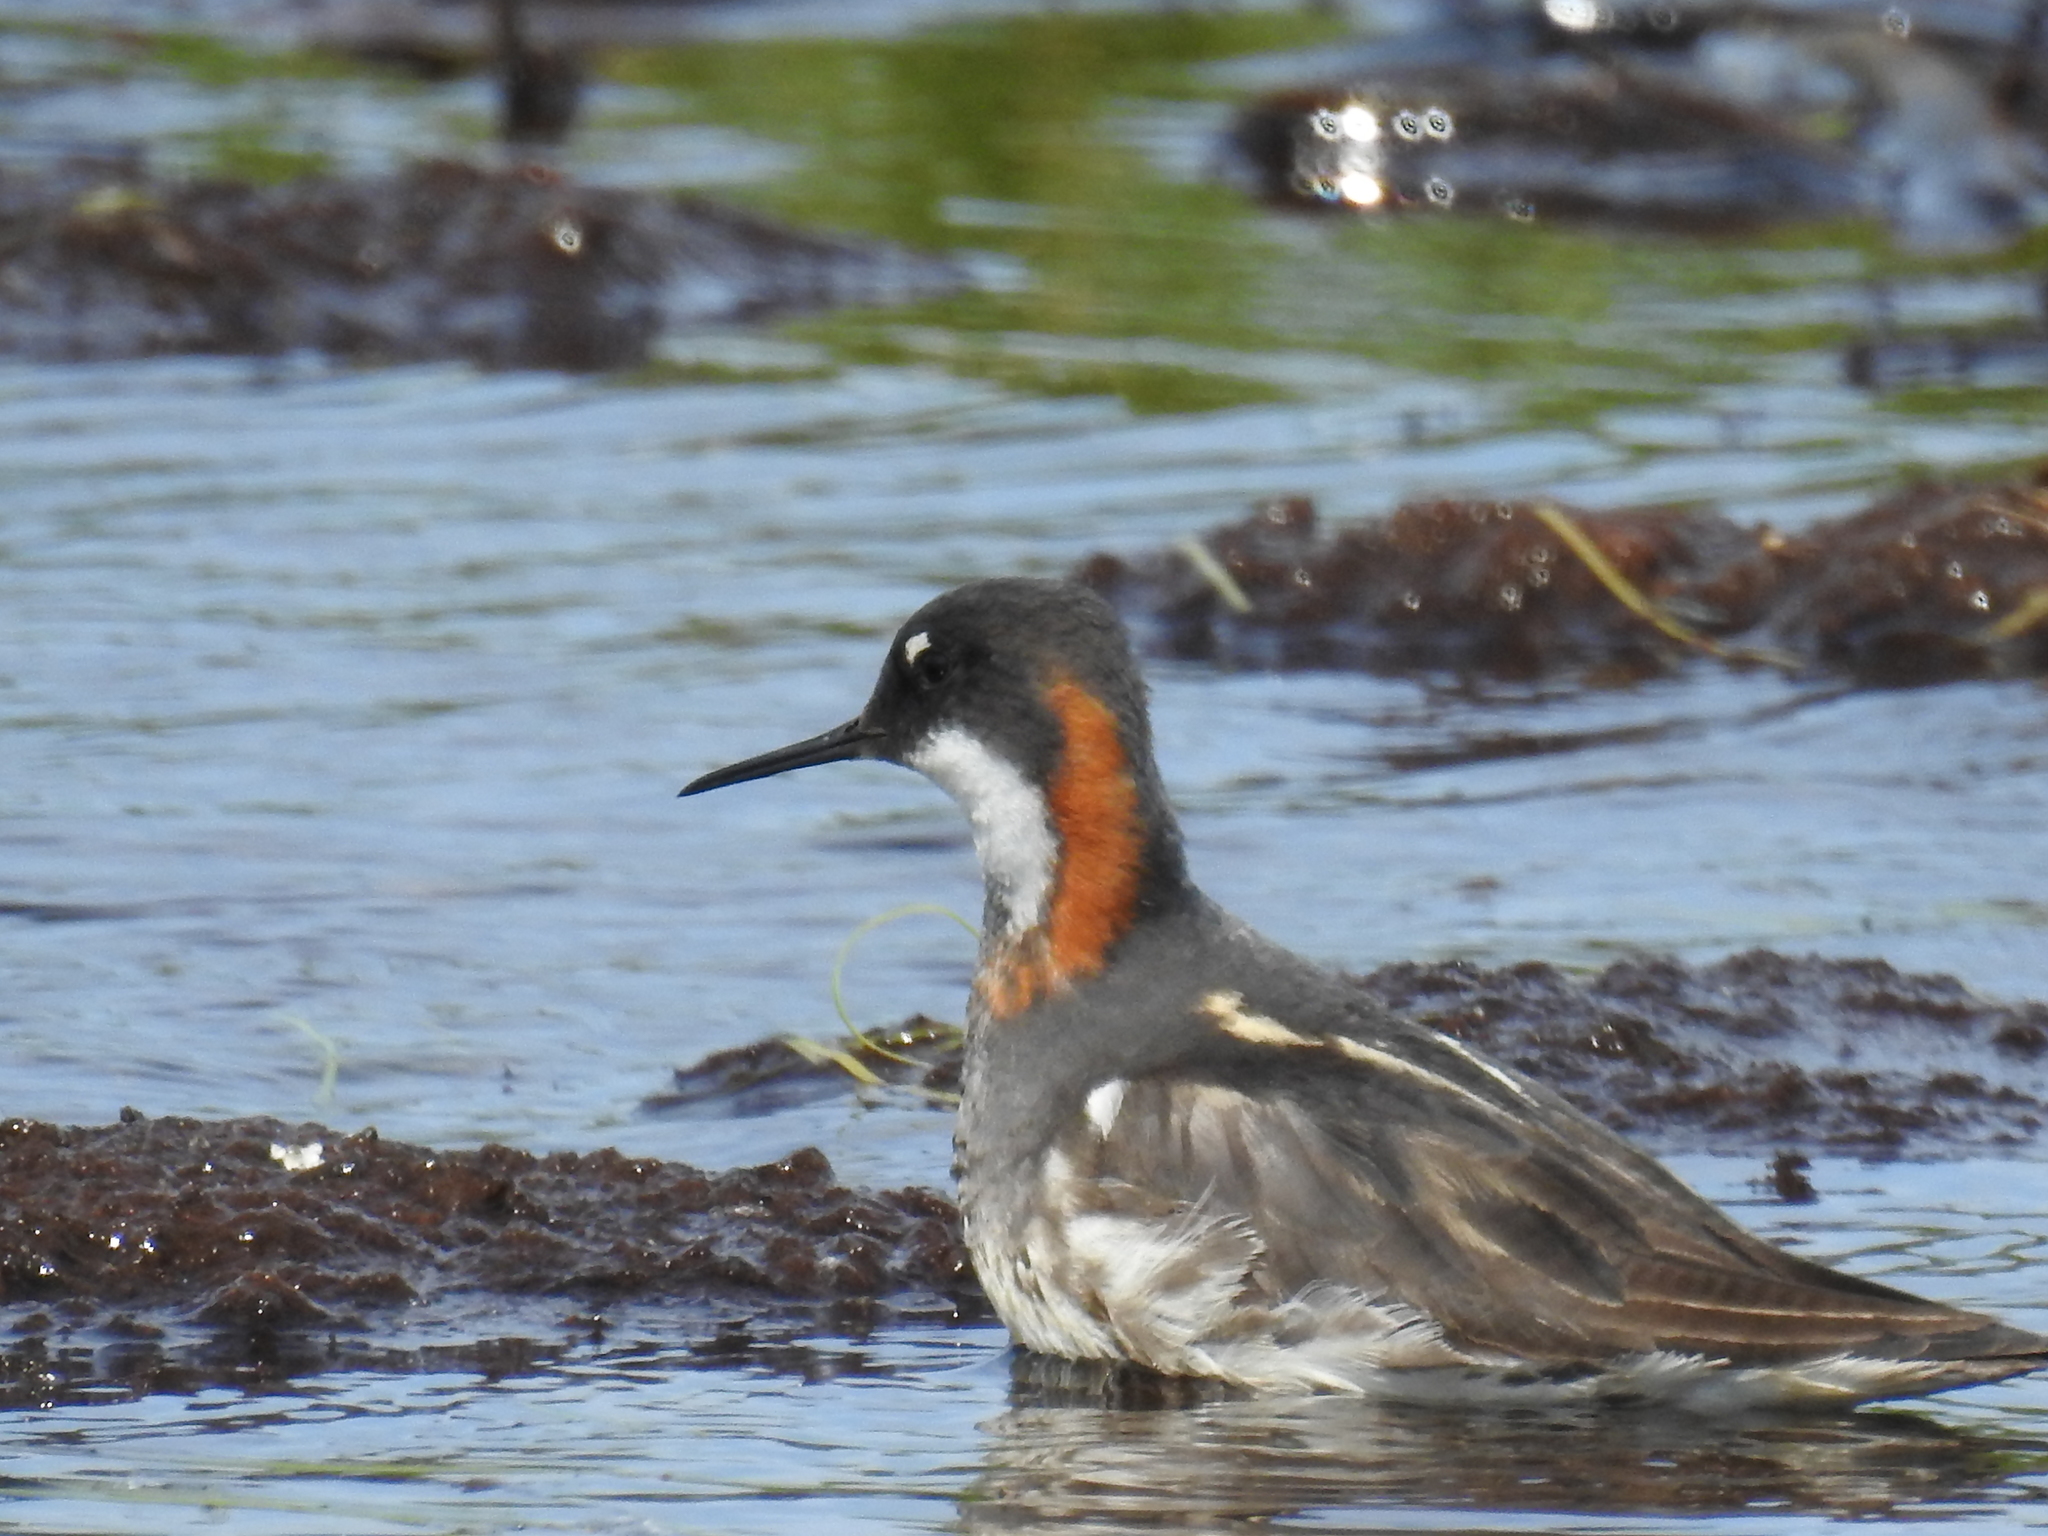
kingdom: Animalia
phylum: Chordata
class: Aves
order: Charadriiformes
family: Scolopacidae
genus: Phalaropus
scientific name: Phalaropus lobatus
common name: Red-necked phalarope
